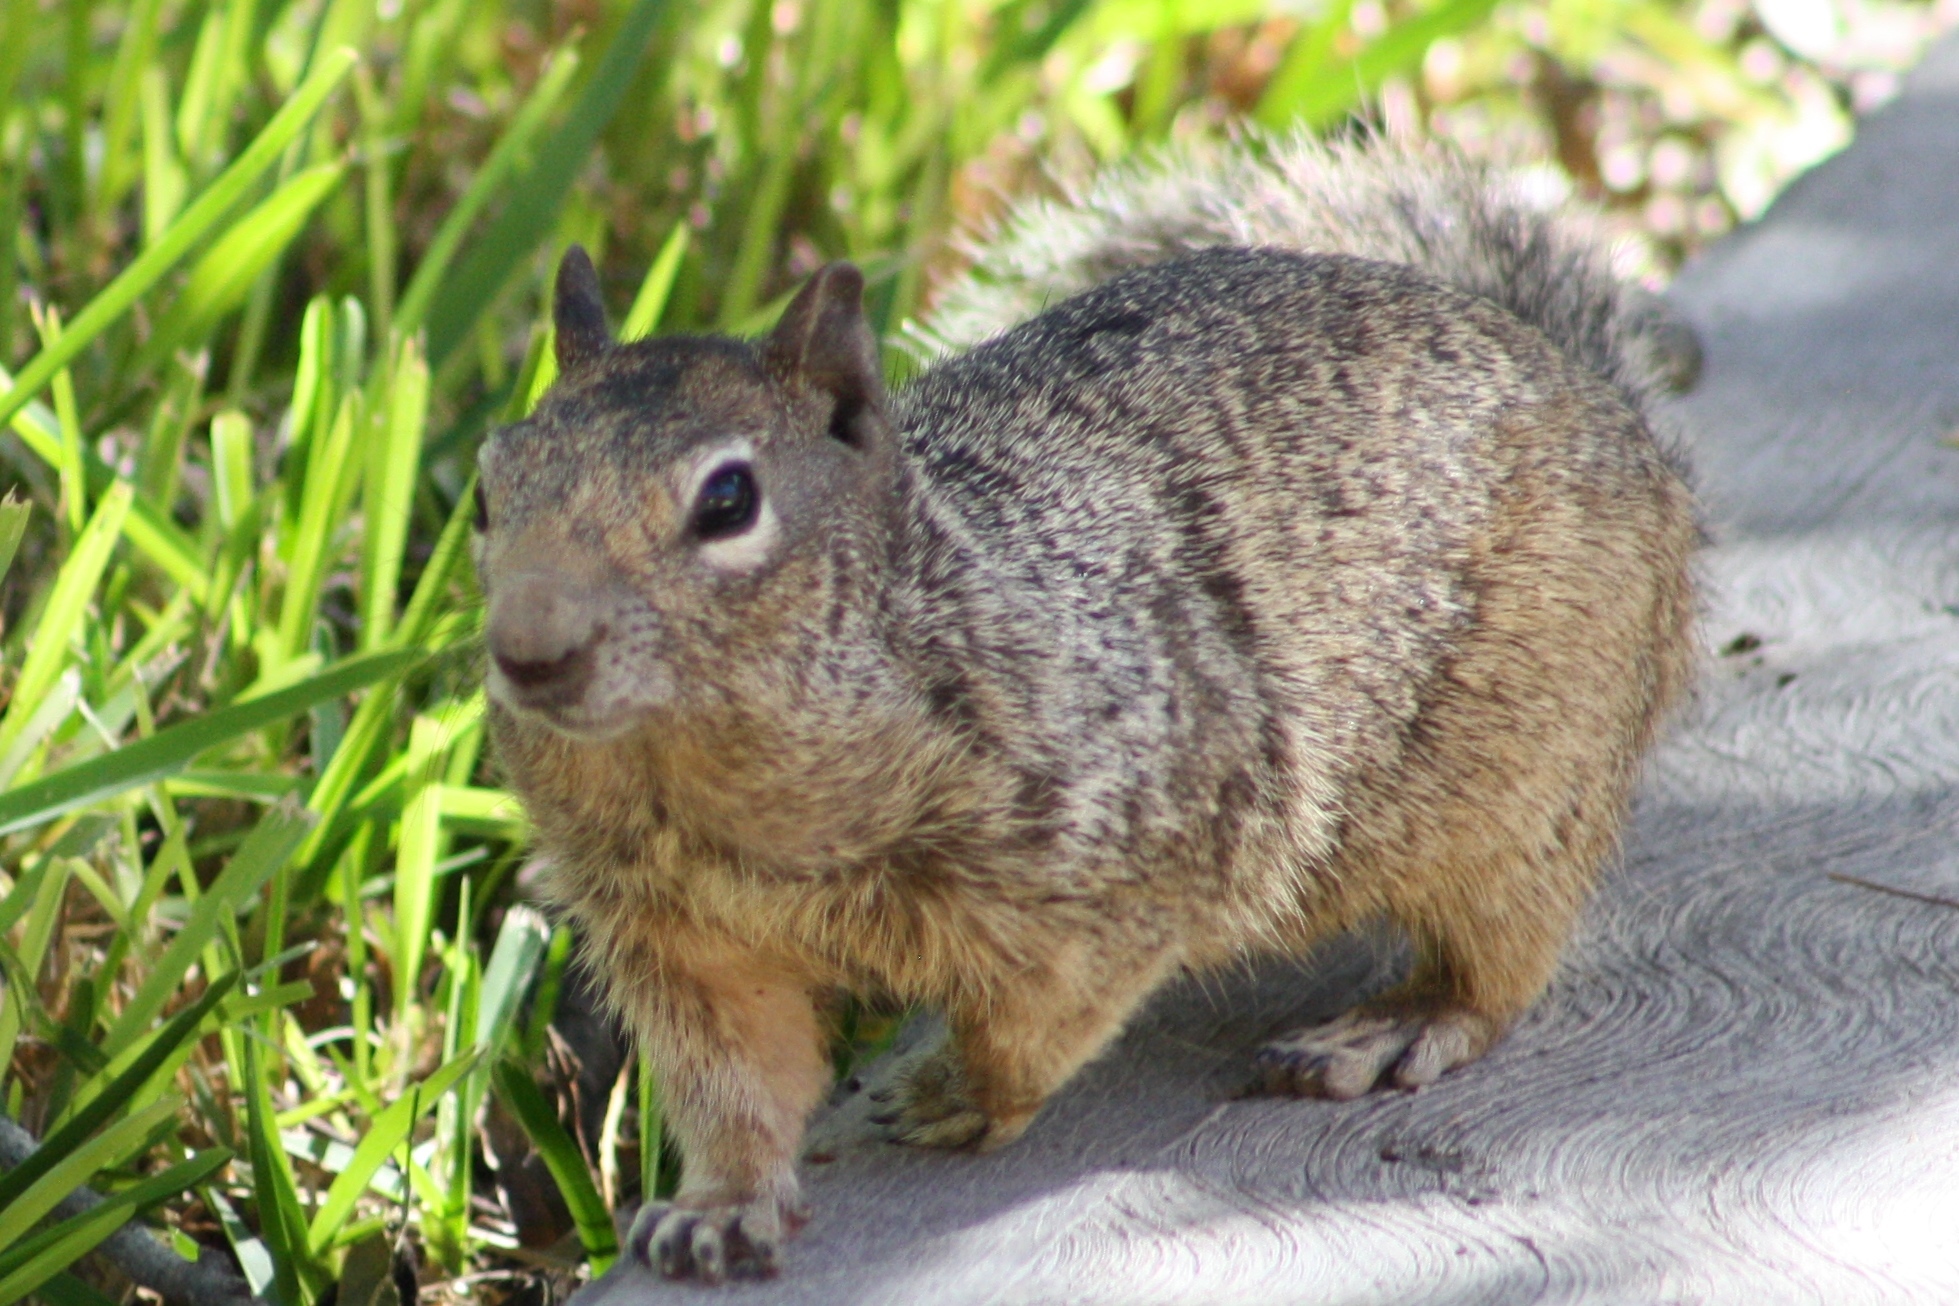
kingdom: Animalia
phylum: Chordata
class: Mammalia
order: Rodentia
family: Sciuridae
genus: Otospermophilus
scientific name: Otospermophilus variegatus
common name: Rock squirrel
